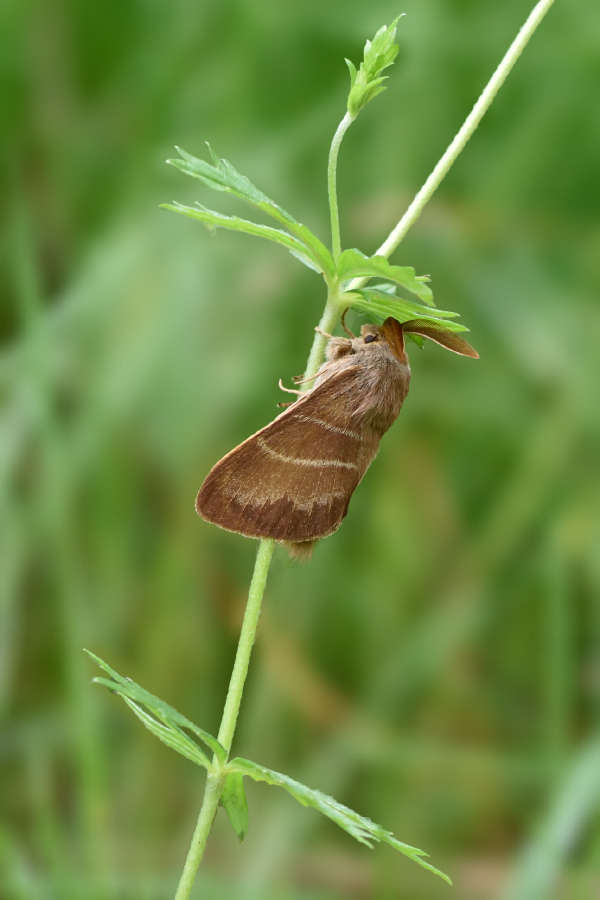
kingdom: Animalia
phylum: Arthropoda
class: Insecta
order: Lepidoptera
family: Lasiocampidae
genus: Macrothylacia
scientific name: Macrothylacia rubi
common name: Fox moth
